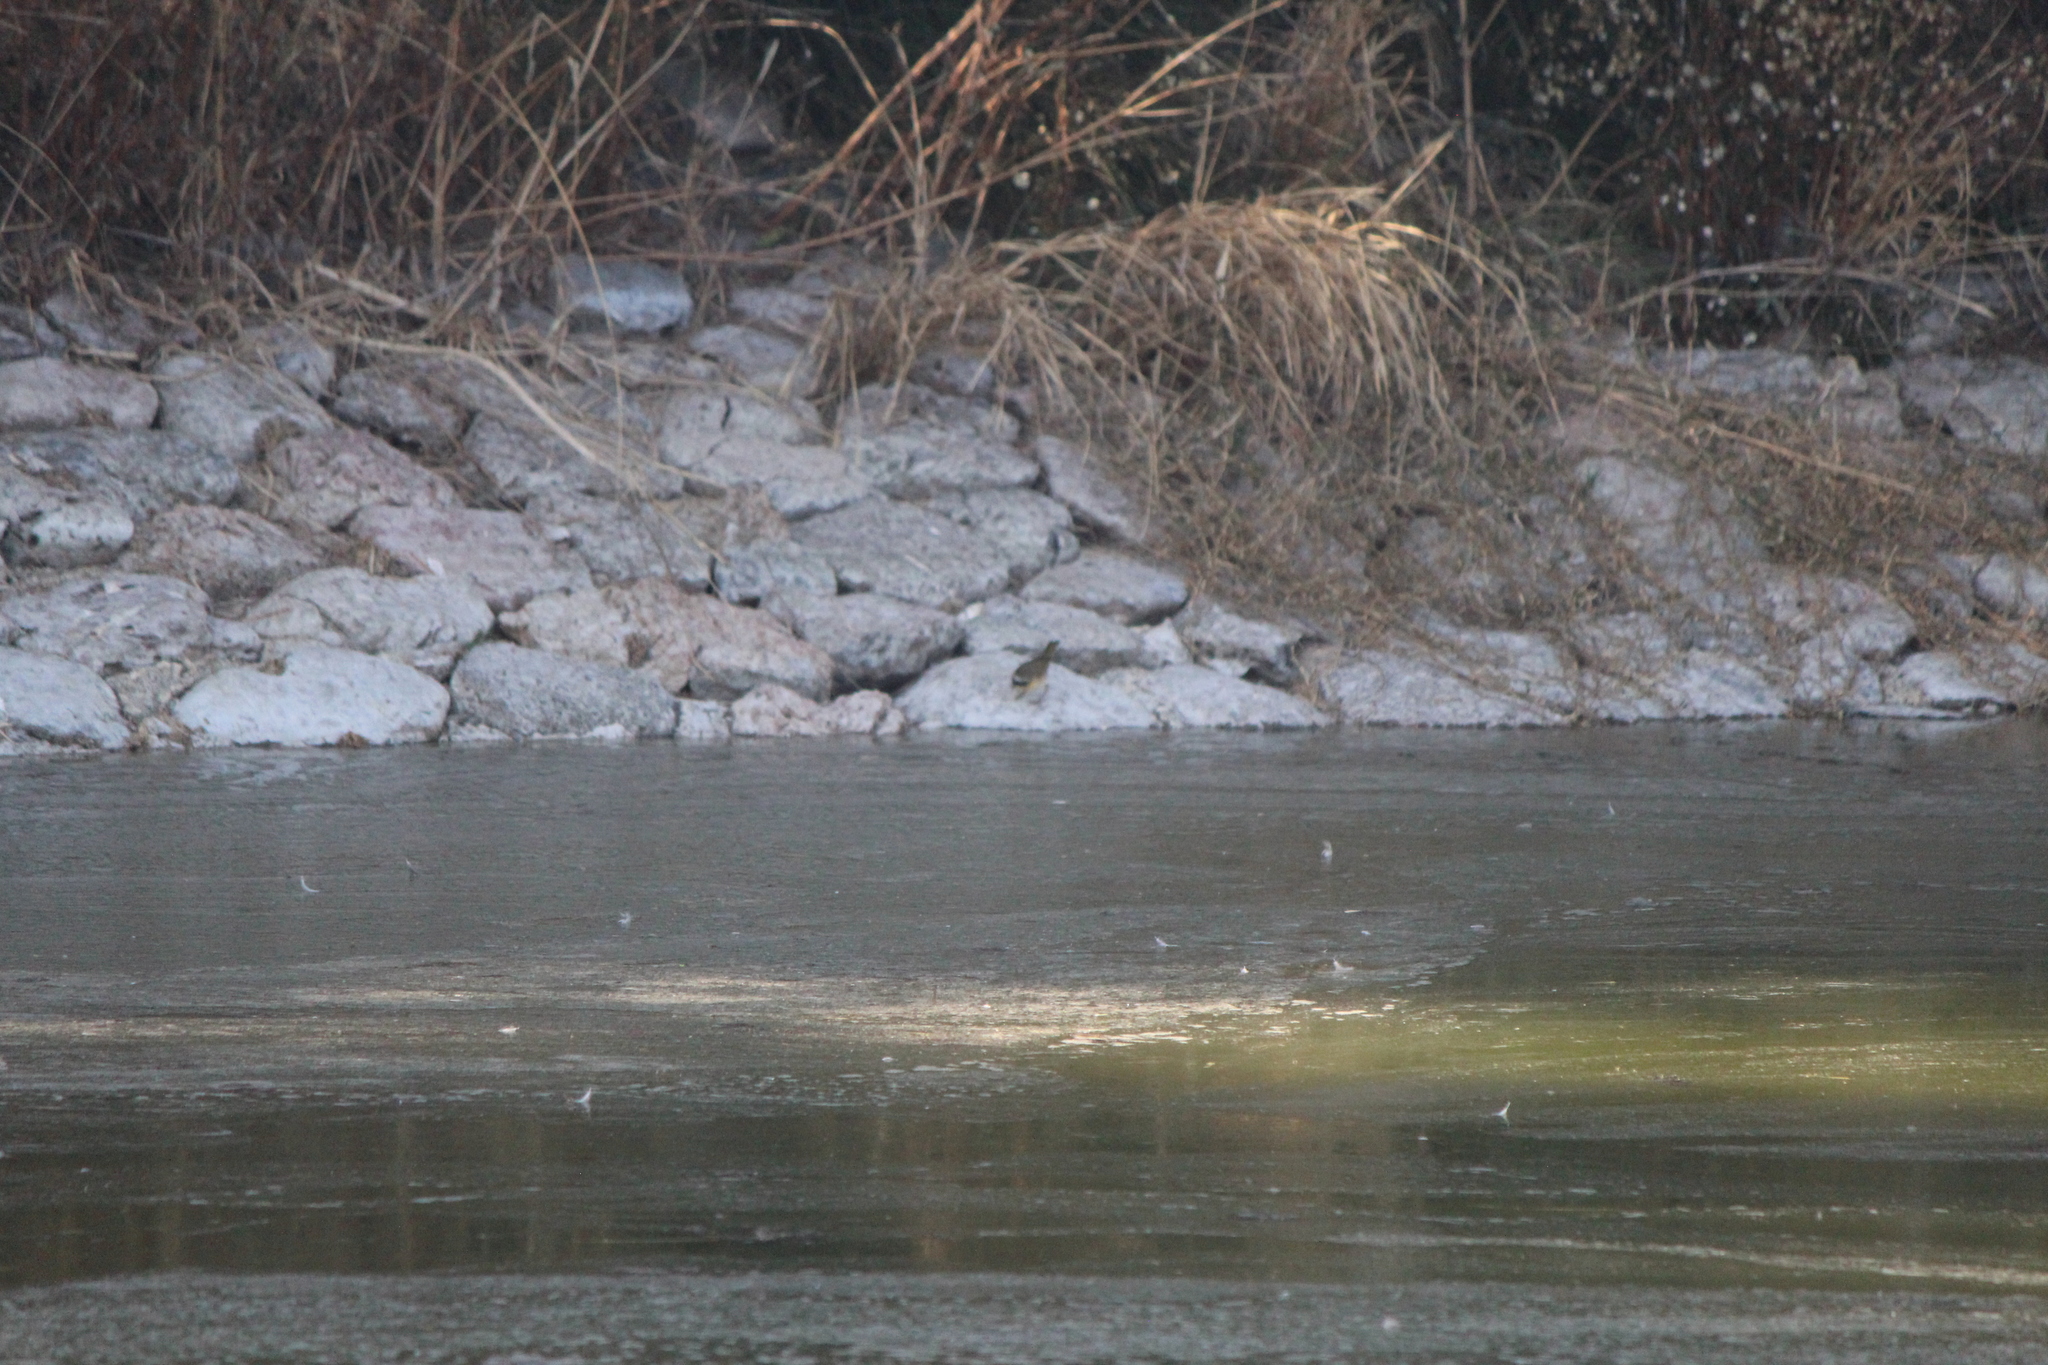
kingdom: Animalia
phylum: Chordata
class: Aves
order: Passeriformes
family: Parulidae
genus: Geothlypis
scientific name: Geothlypis trichas
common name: Common yellowthroat
